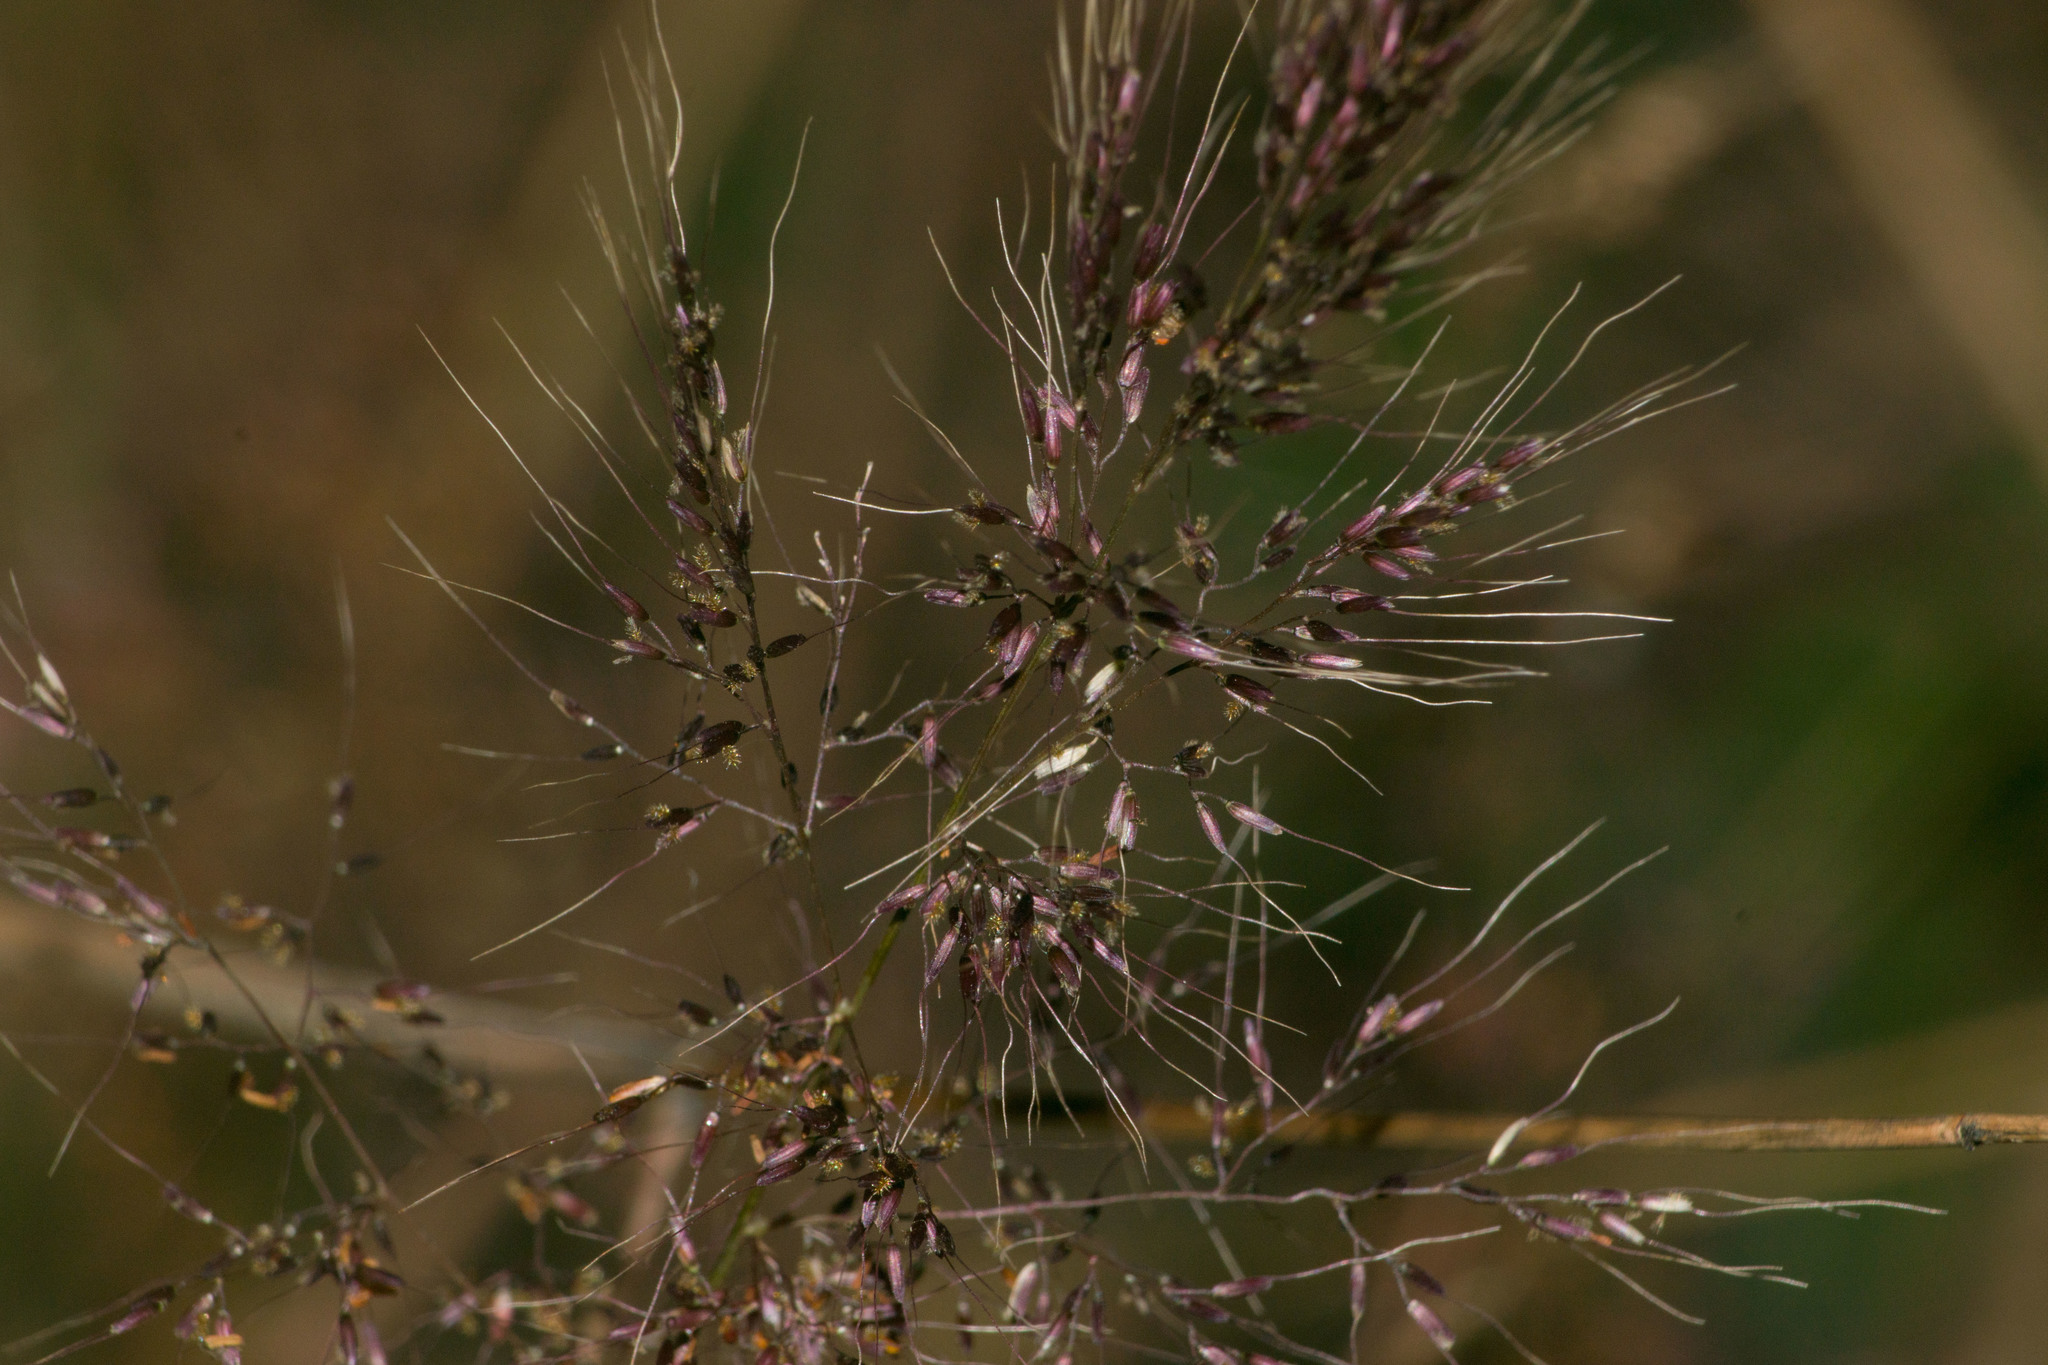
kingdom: Plantae
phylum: Tracheophyta
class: Liliopsida
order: Poales
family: Poaceae
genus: Melinis
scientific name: Melinis minutiflora
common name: Molassesgrass
